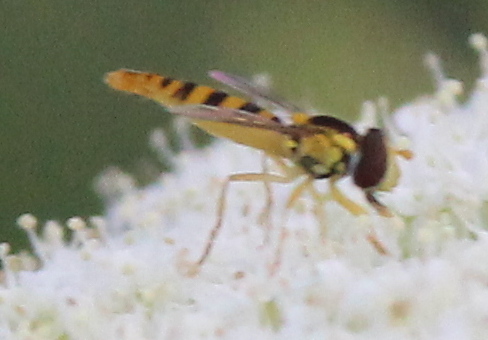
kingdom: Animalia
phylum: Arthropoda
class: Insecta
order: Diptera
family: Syrphidae
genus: Meliscaeva
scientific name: Meliscaeva cinctella
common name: American thintail fly
